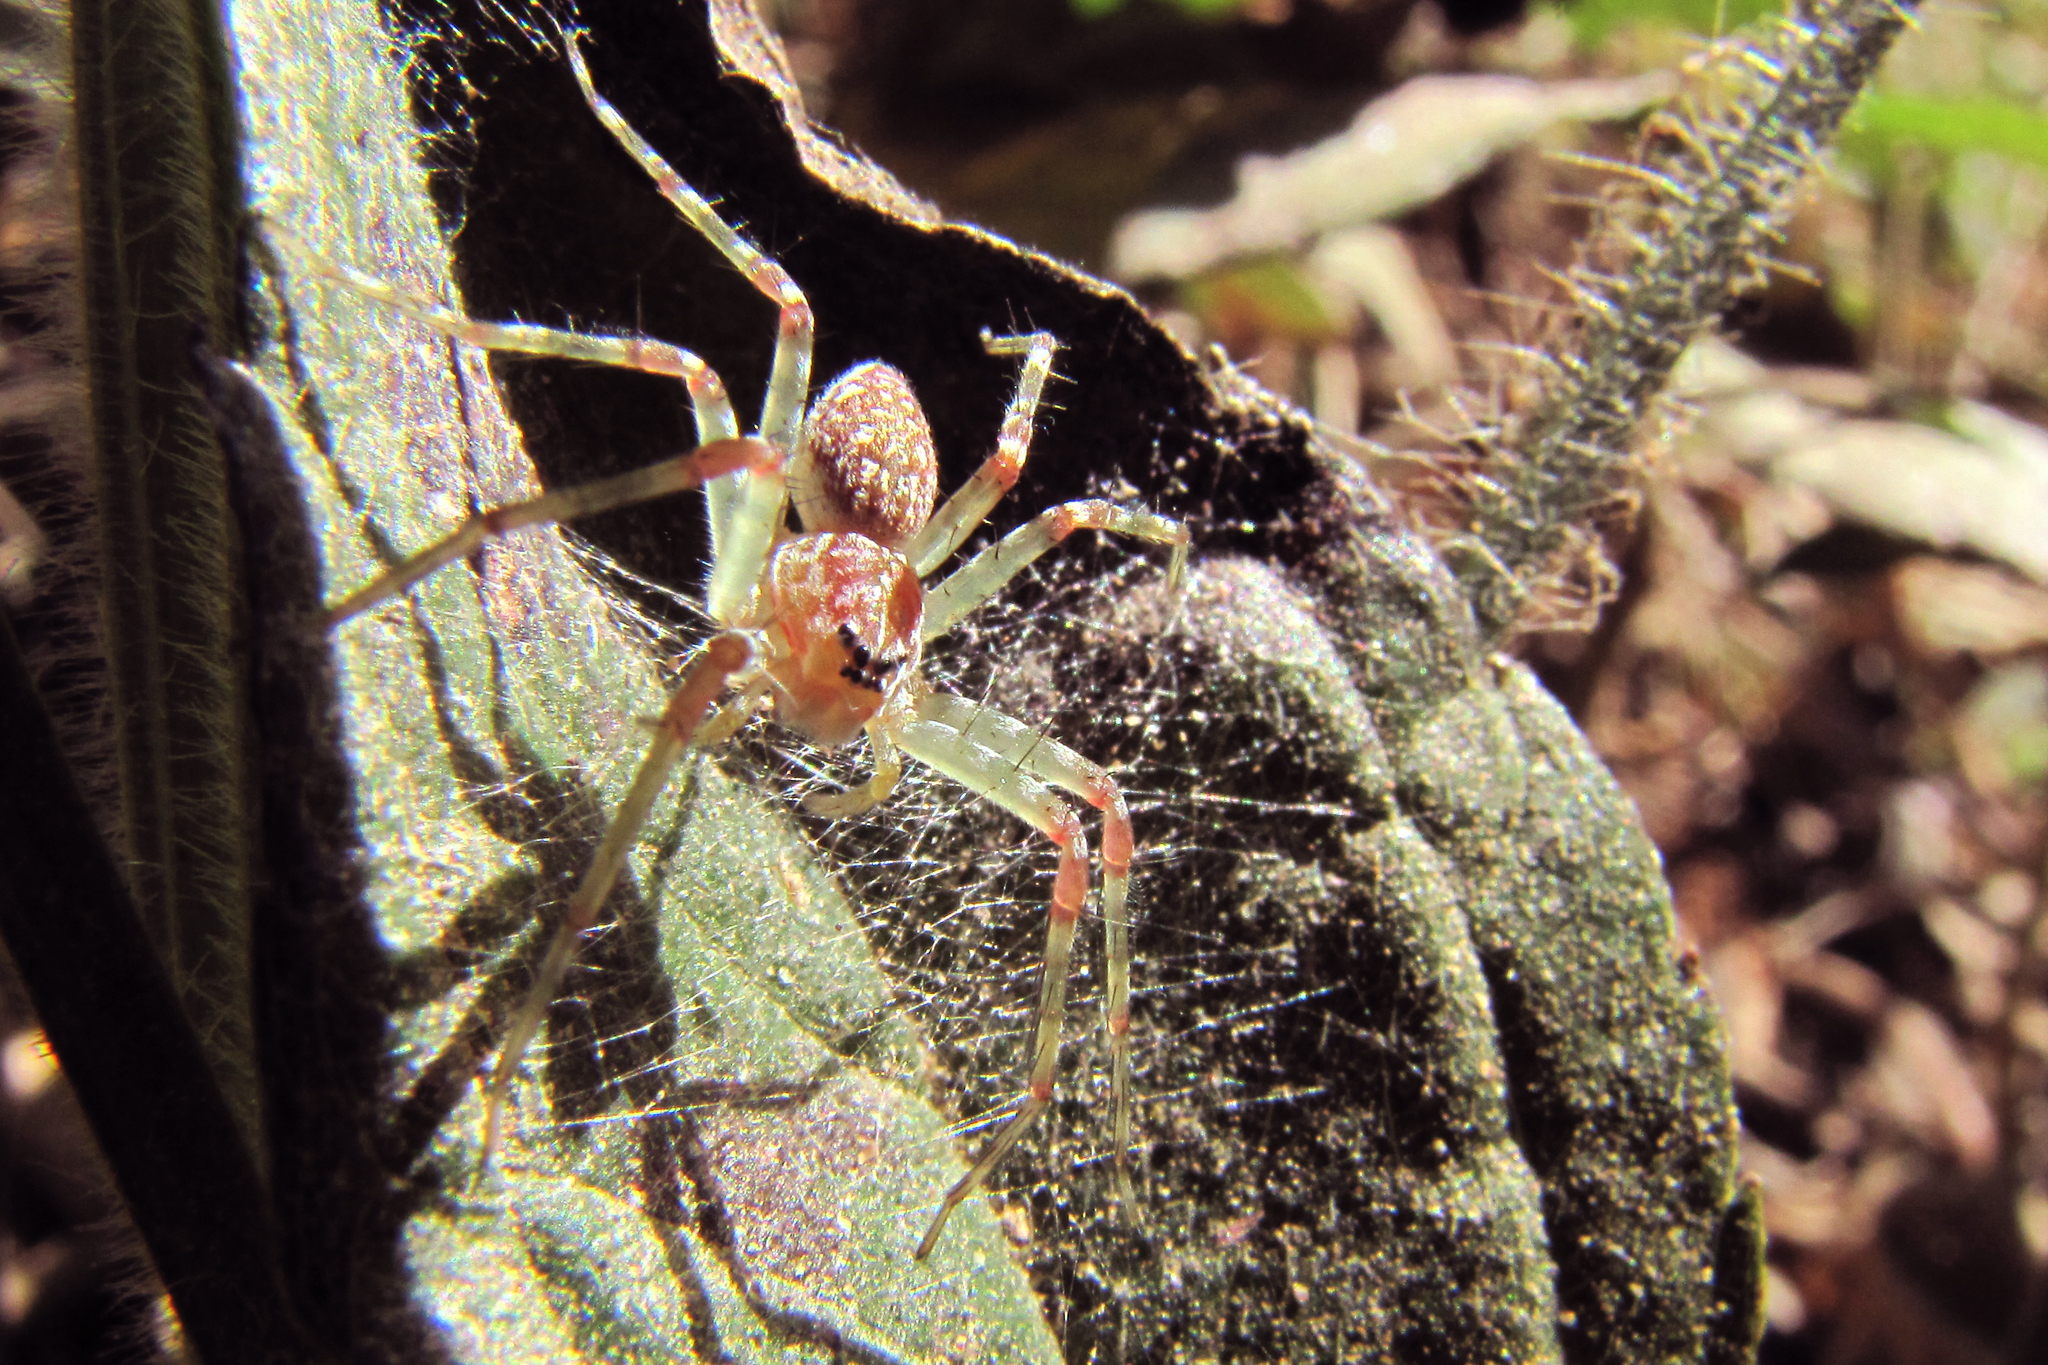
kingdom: Animalia
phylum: Arthropoda
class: Arachnida
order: Araneae
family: Pisauridae
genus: Thaumasia
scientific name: Thaumasia
